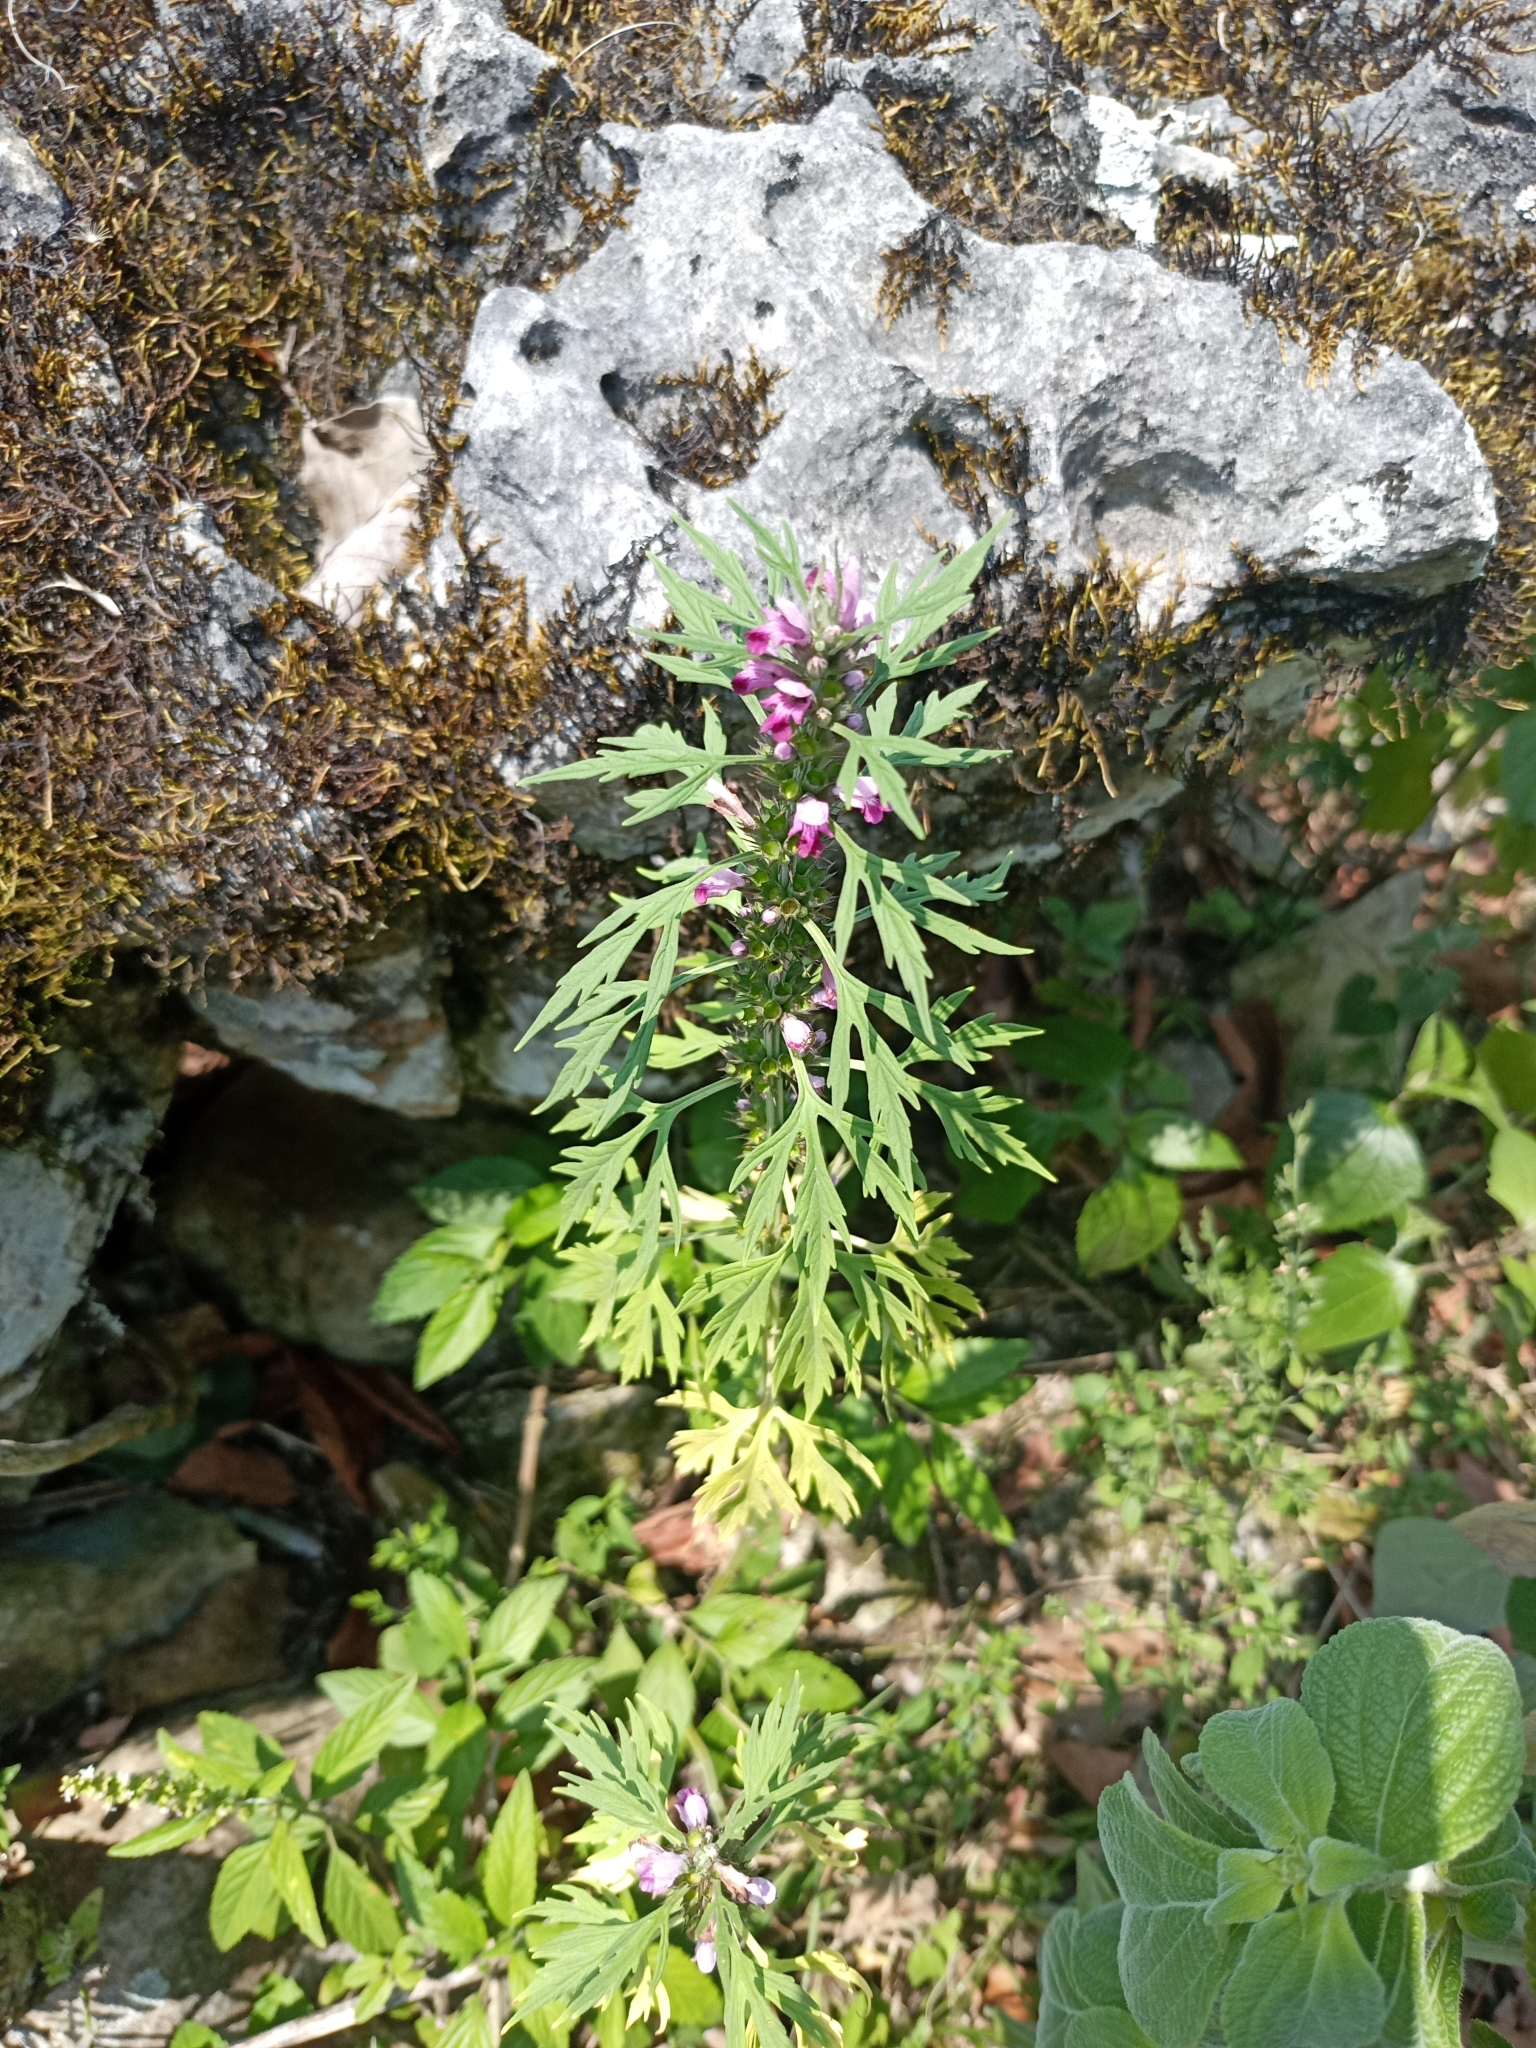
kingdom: Plantae
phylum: Tracheophyta
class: Magnoliopsida
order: Lamiales
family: Lamiaceae
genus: Leonurus
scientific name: Leonurus sibiricus
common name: Honeyweed
